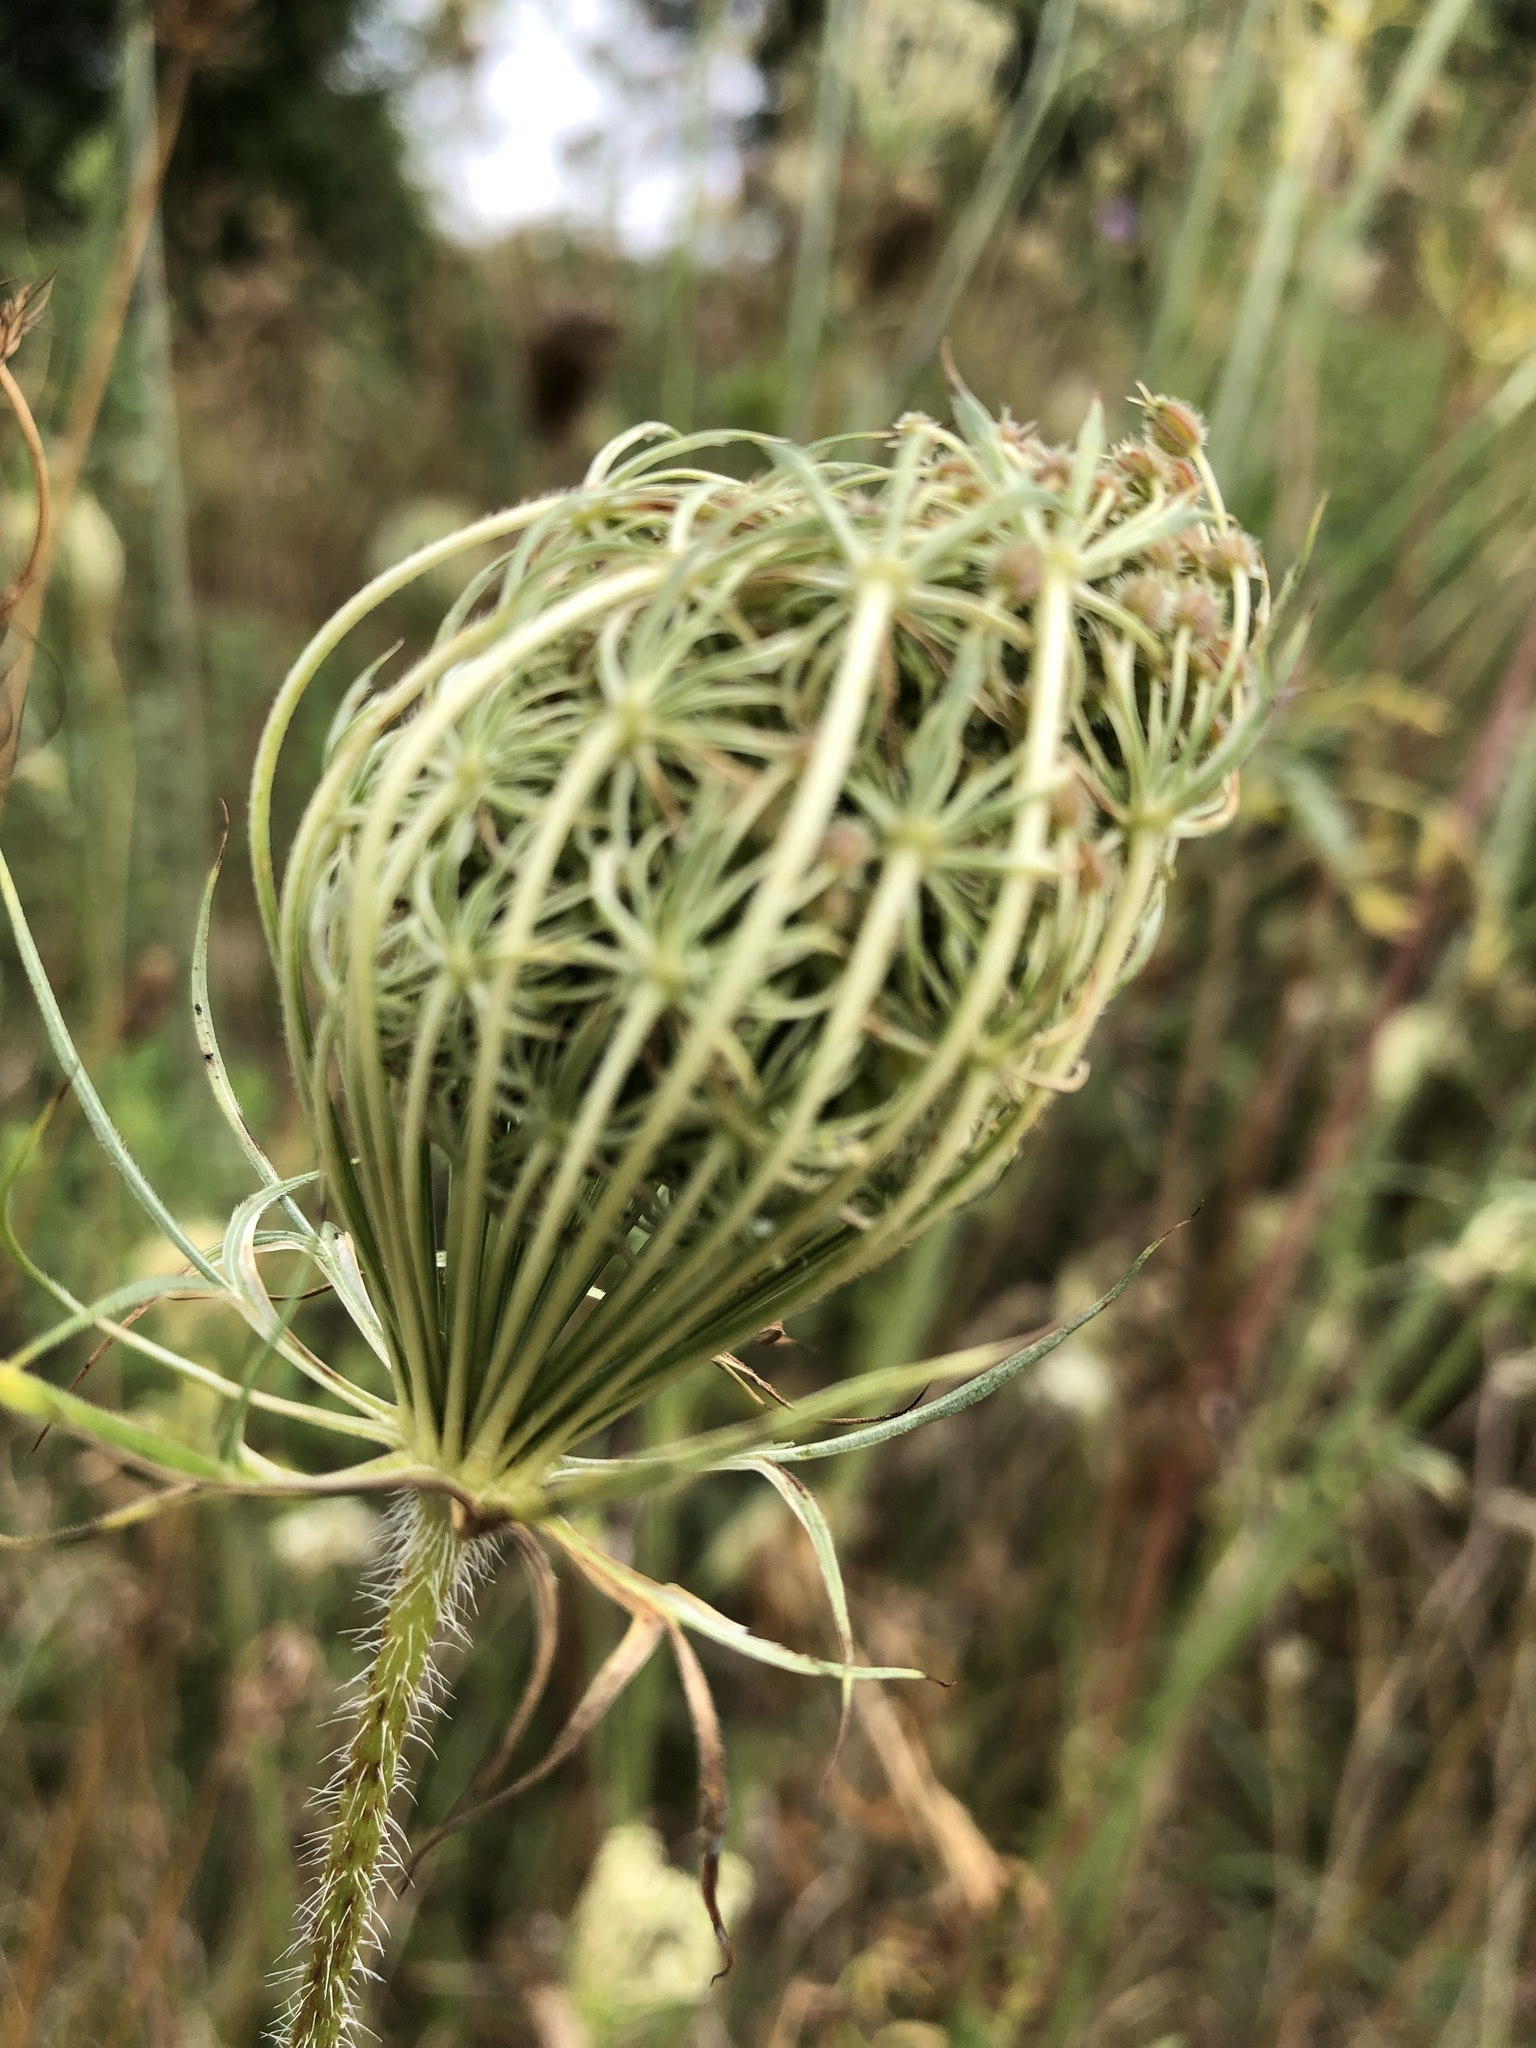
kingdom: Plantae
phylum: Tracheophyta
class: Magnoliopsida
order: Apiales
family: Apiaceae
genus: Daucus
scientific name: Daucus carota
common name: Wild carrot
